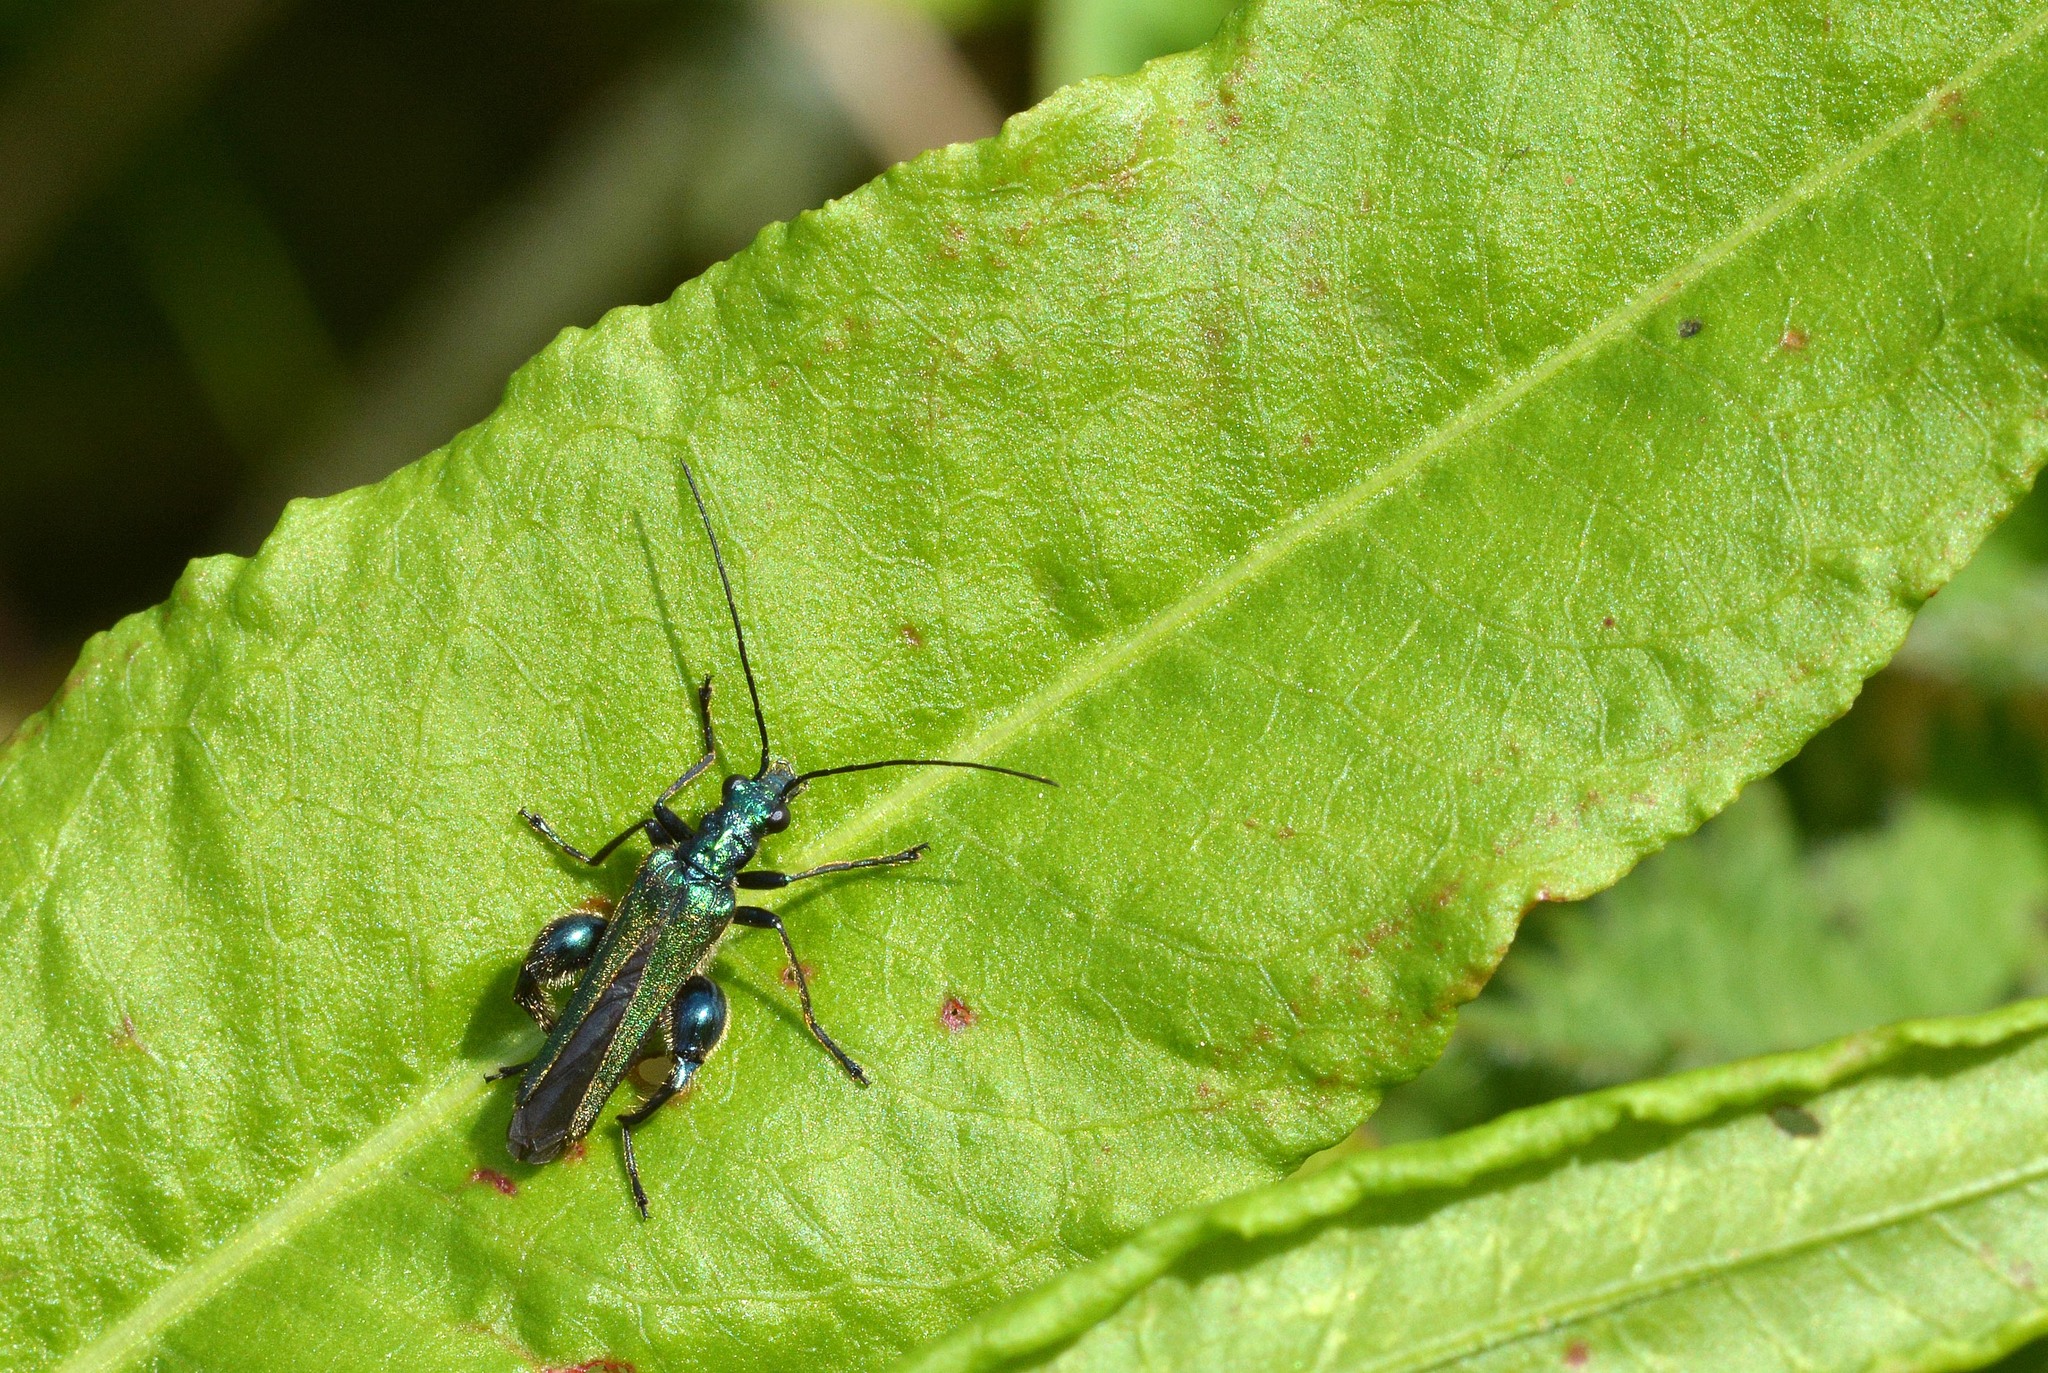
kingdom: Animalia
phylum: Arthropoda
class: Insecta
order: Coleoptera
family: Oedemeridae
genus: Oedemera
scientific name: Oedemera nobilis
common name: Swollen-thighed beetle
